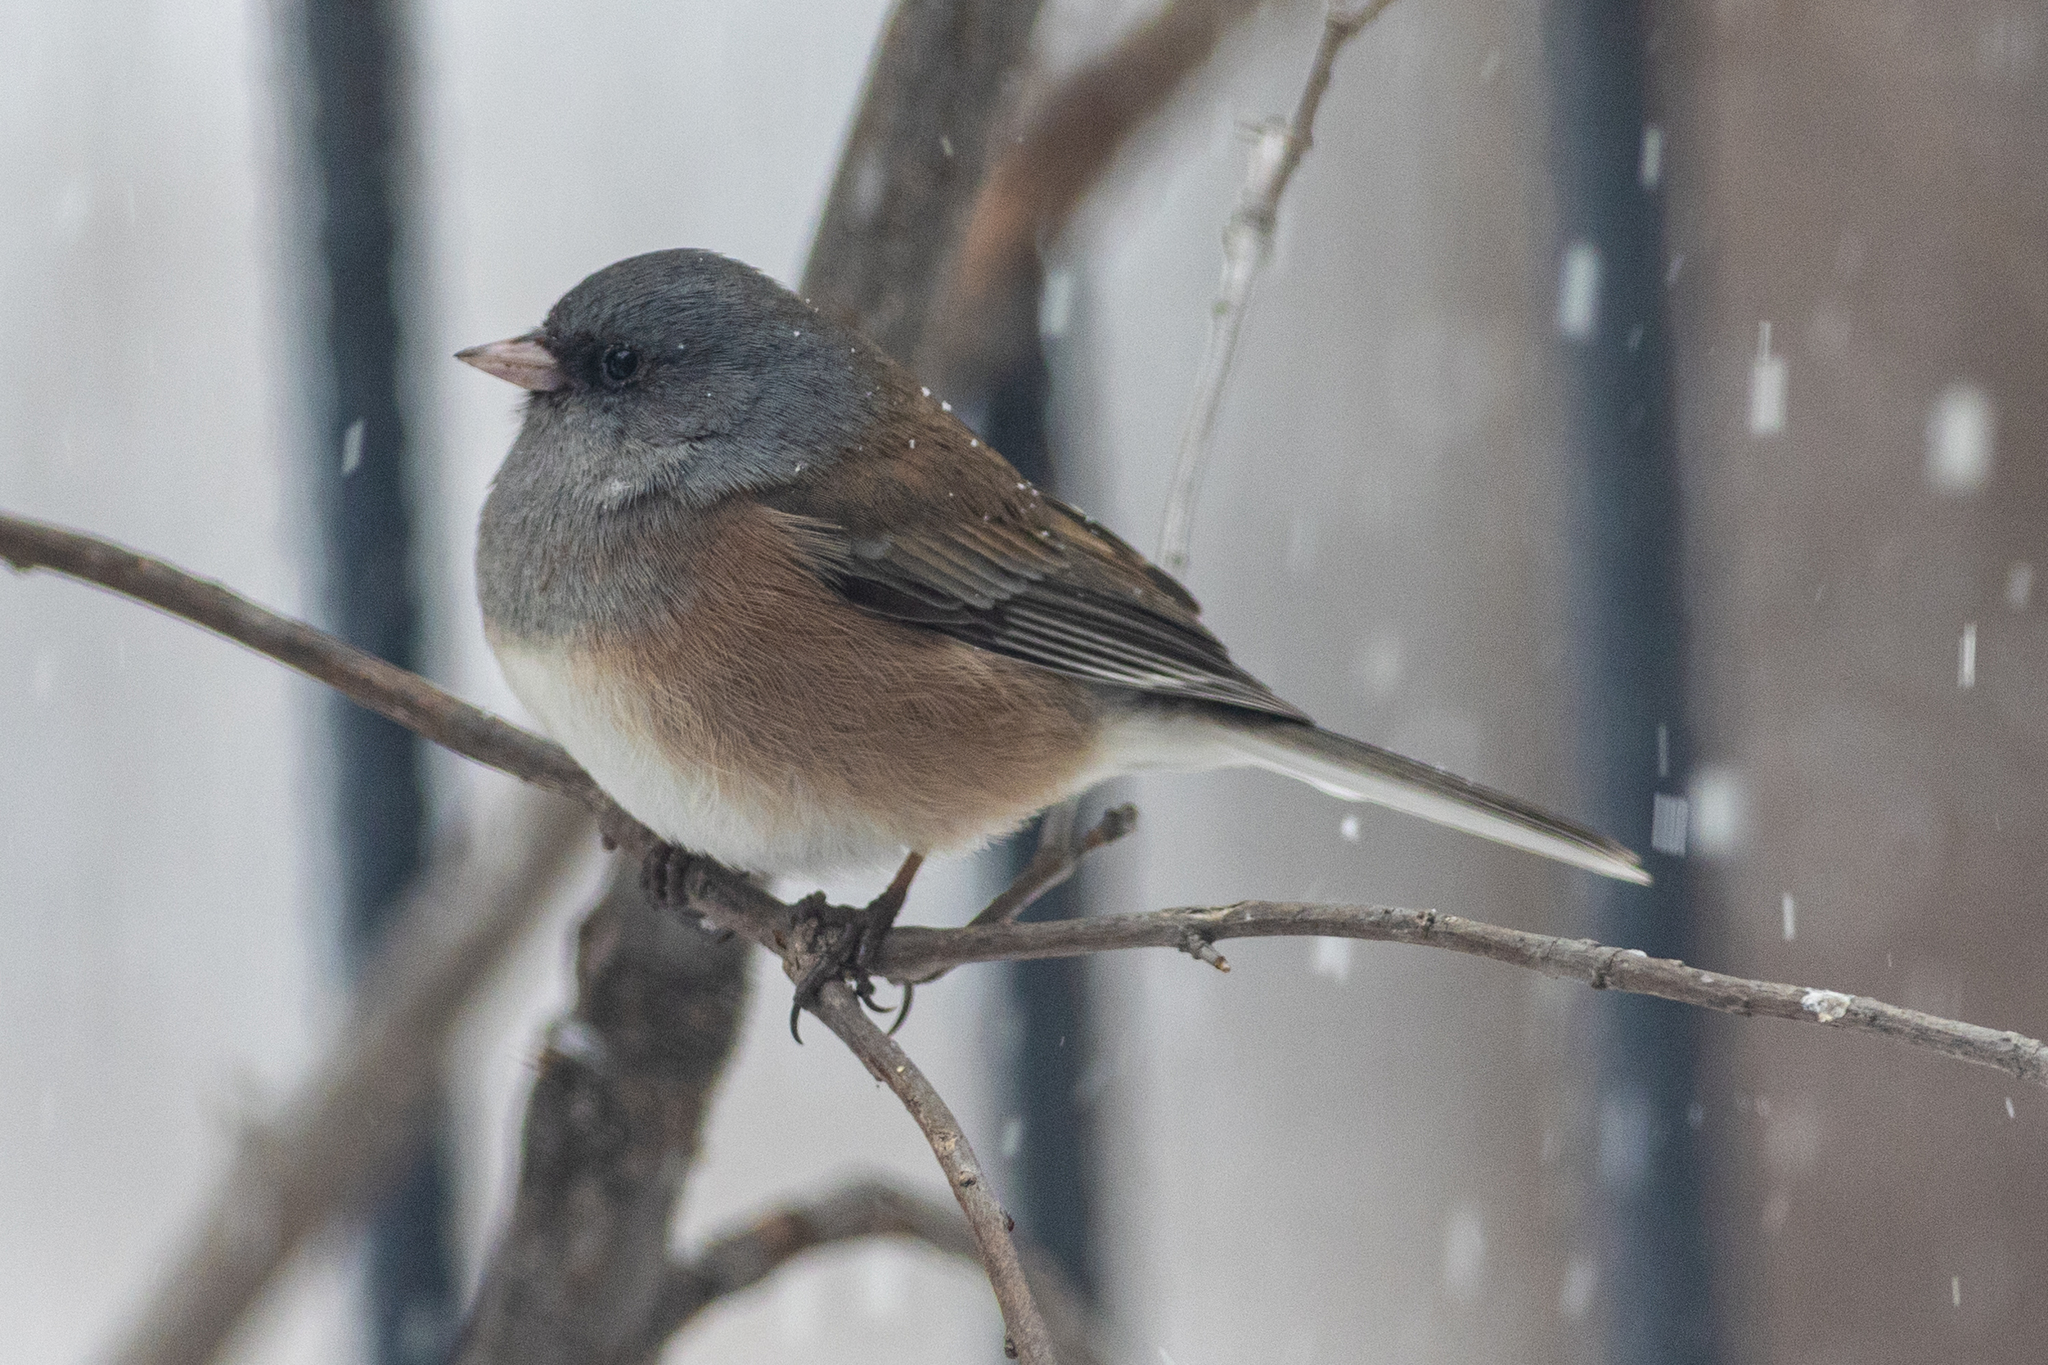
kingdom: Animalia
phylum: Chordata
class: Aves
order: Passeriformes
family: Passerellidae
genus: Junco
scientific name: Junco hyemalis
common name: Dark-eyed junco
